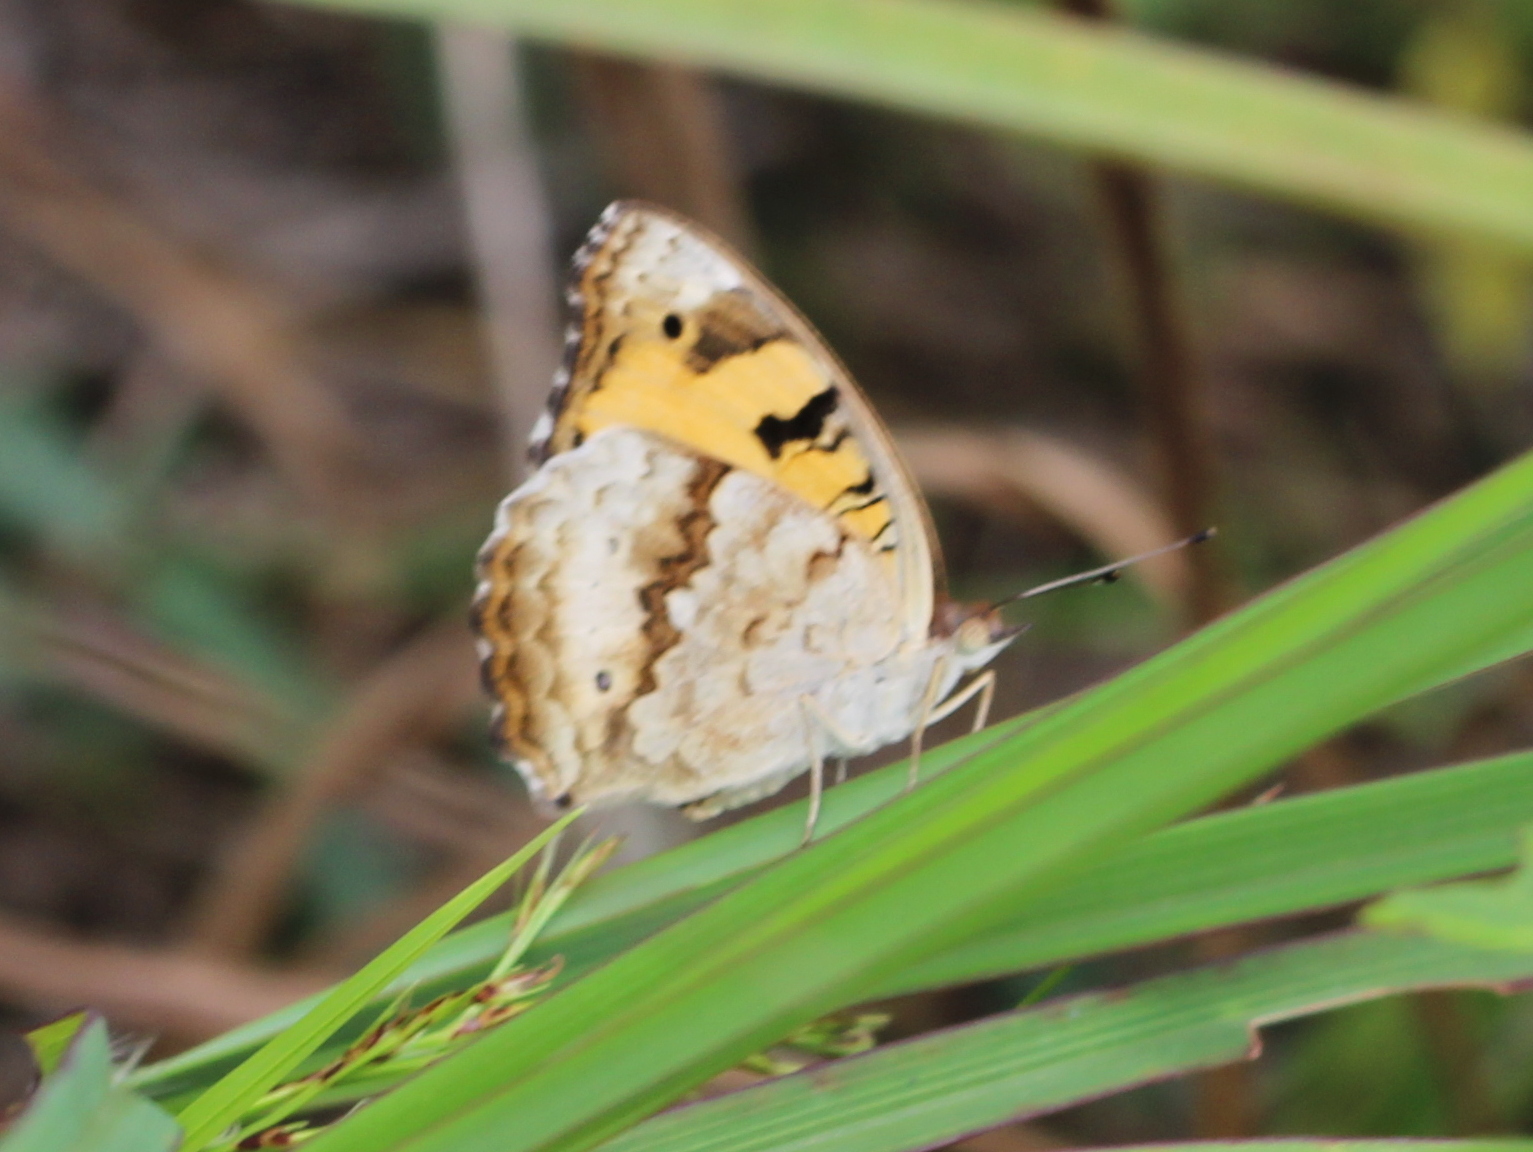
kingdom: Animalia
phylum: Arthropoda
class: Insecta
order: Lepidoptera
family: Nymphalidae
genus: Junonia
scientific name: Junonia hierta
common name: Yellow pansy
